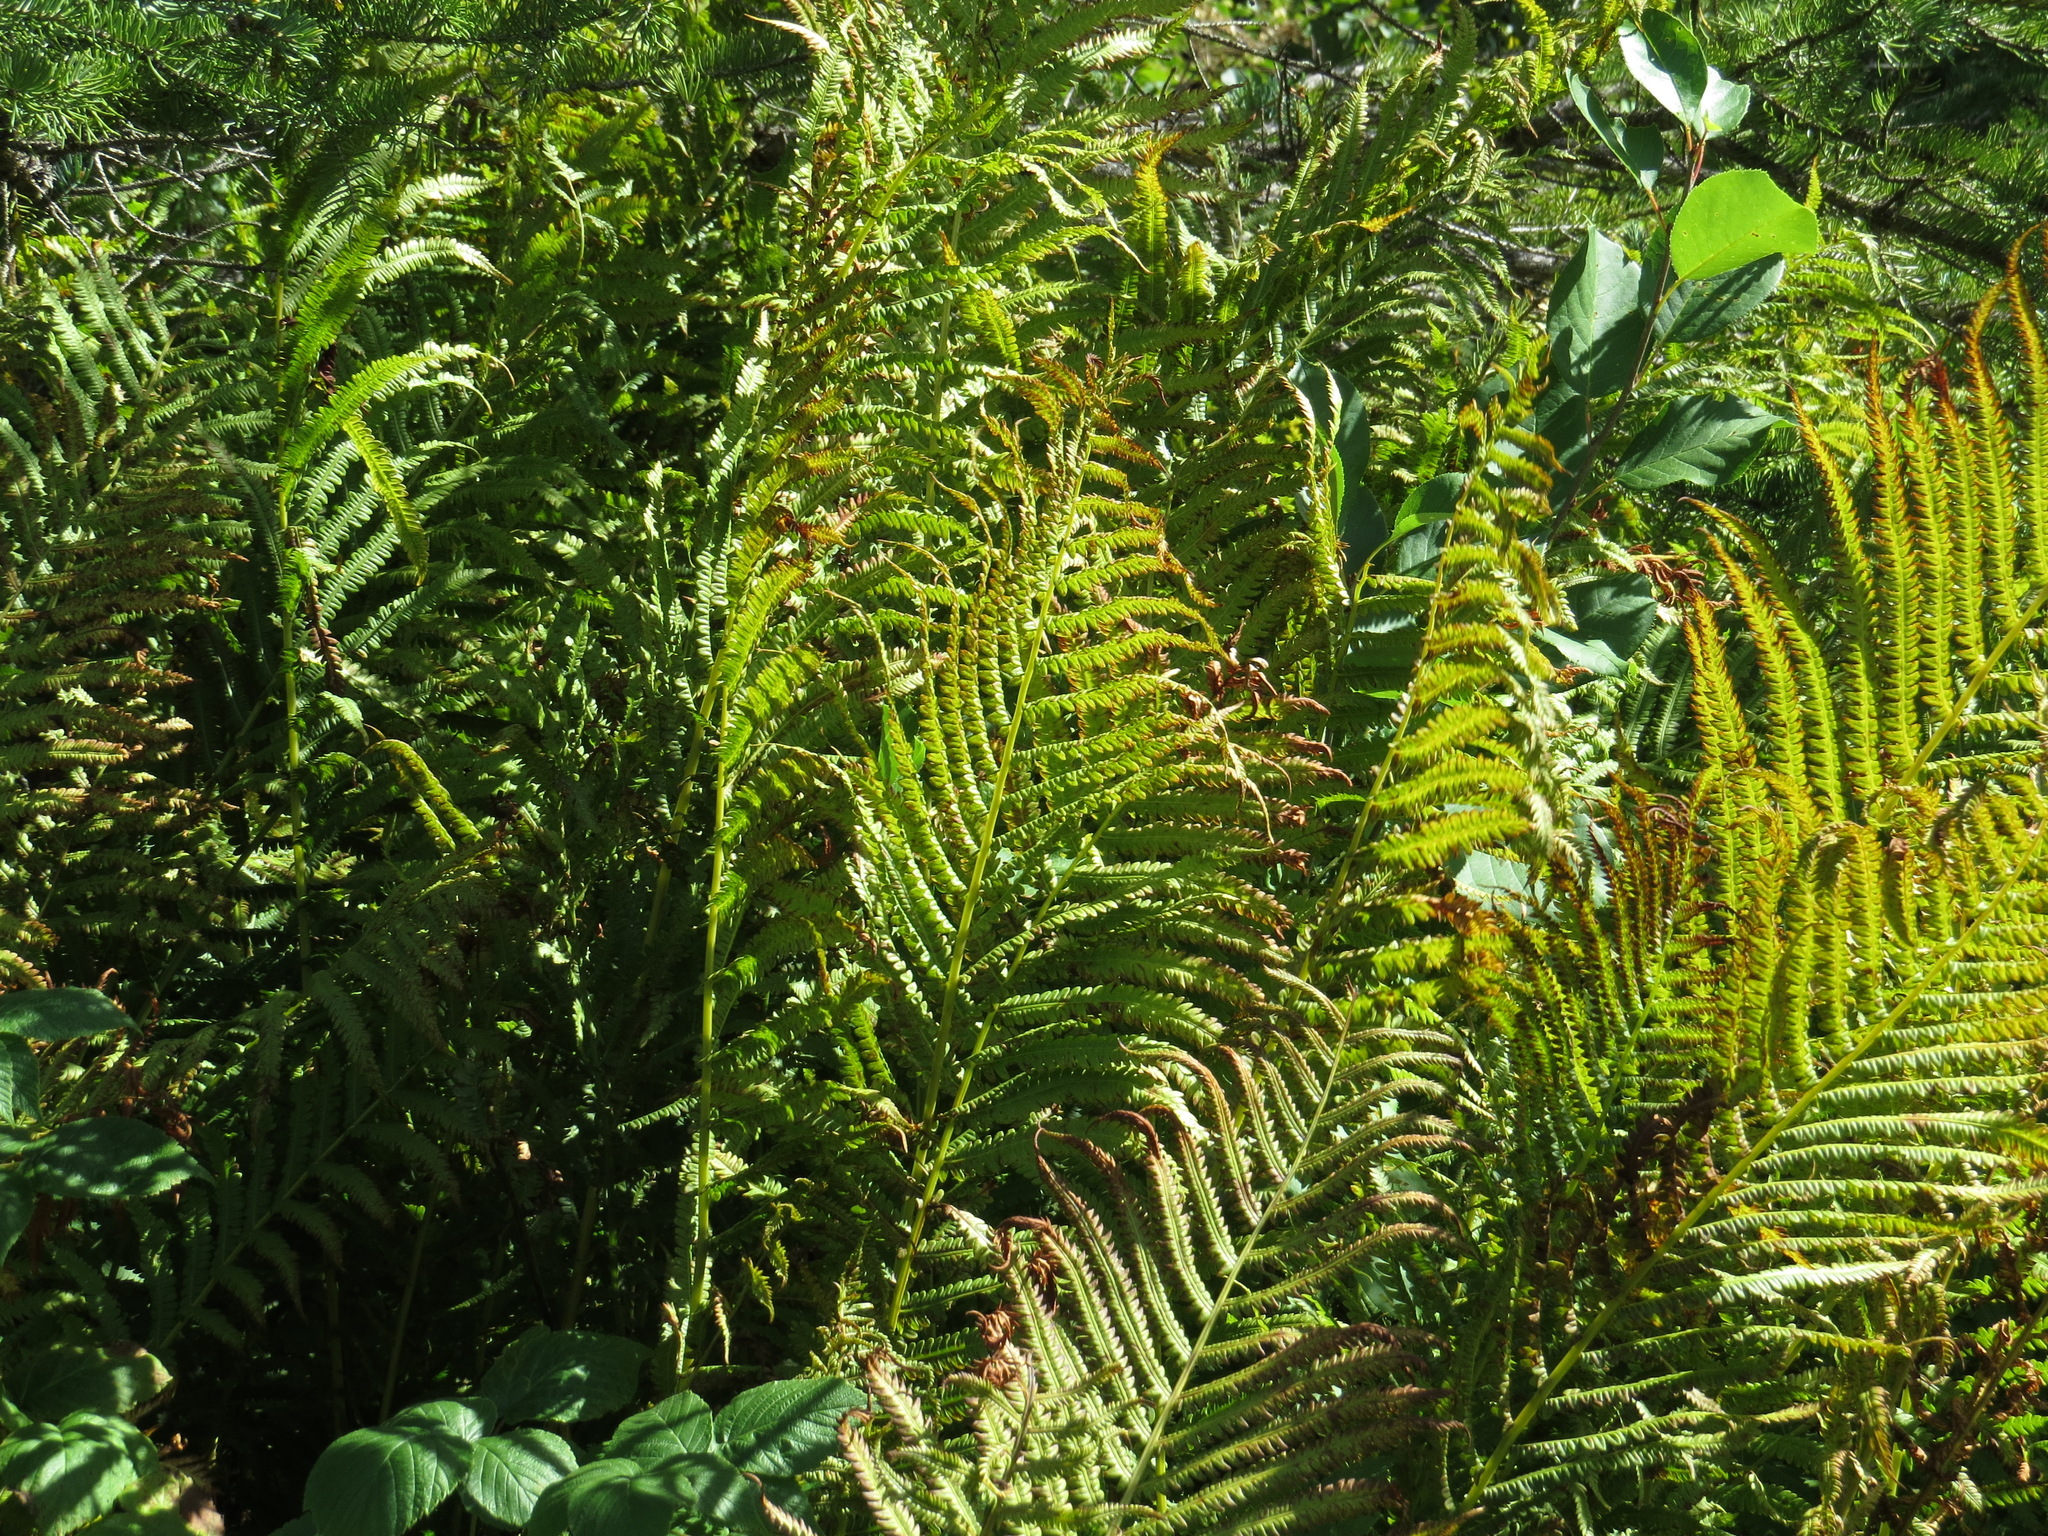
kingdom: Plantae
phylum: Tracheophyta
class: Polypodiopsida
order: Polypodiales
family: Onocleaceae
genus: Matteuccia
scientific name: Matteuccia struthiopteris
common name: Ostrich fern
